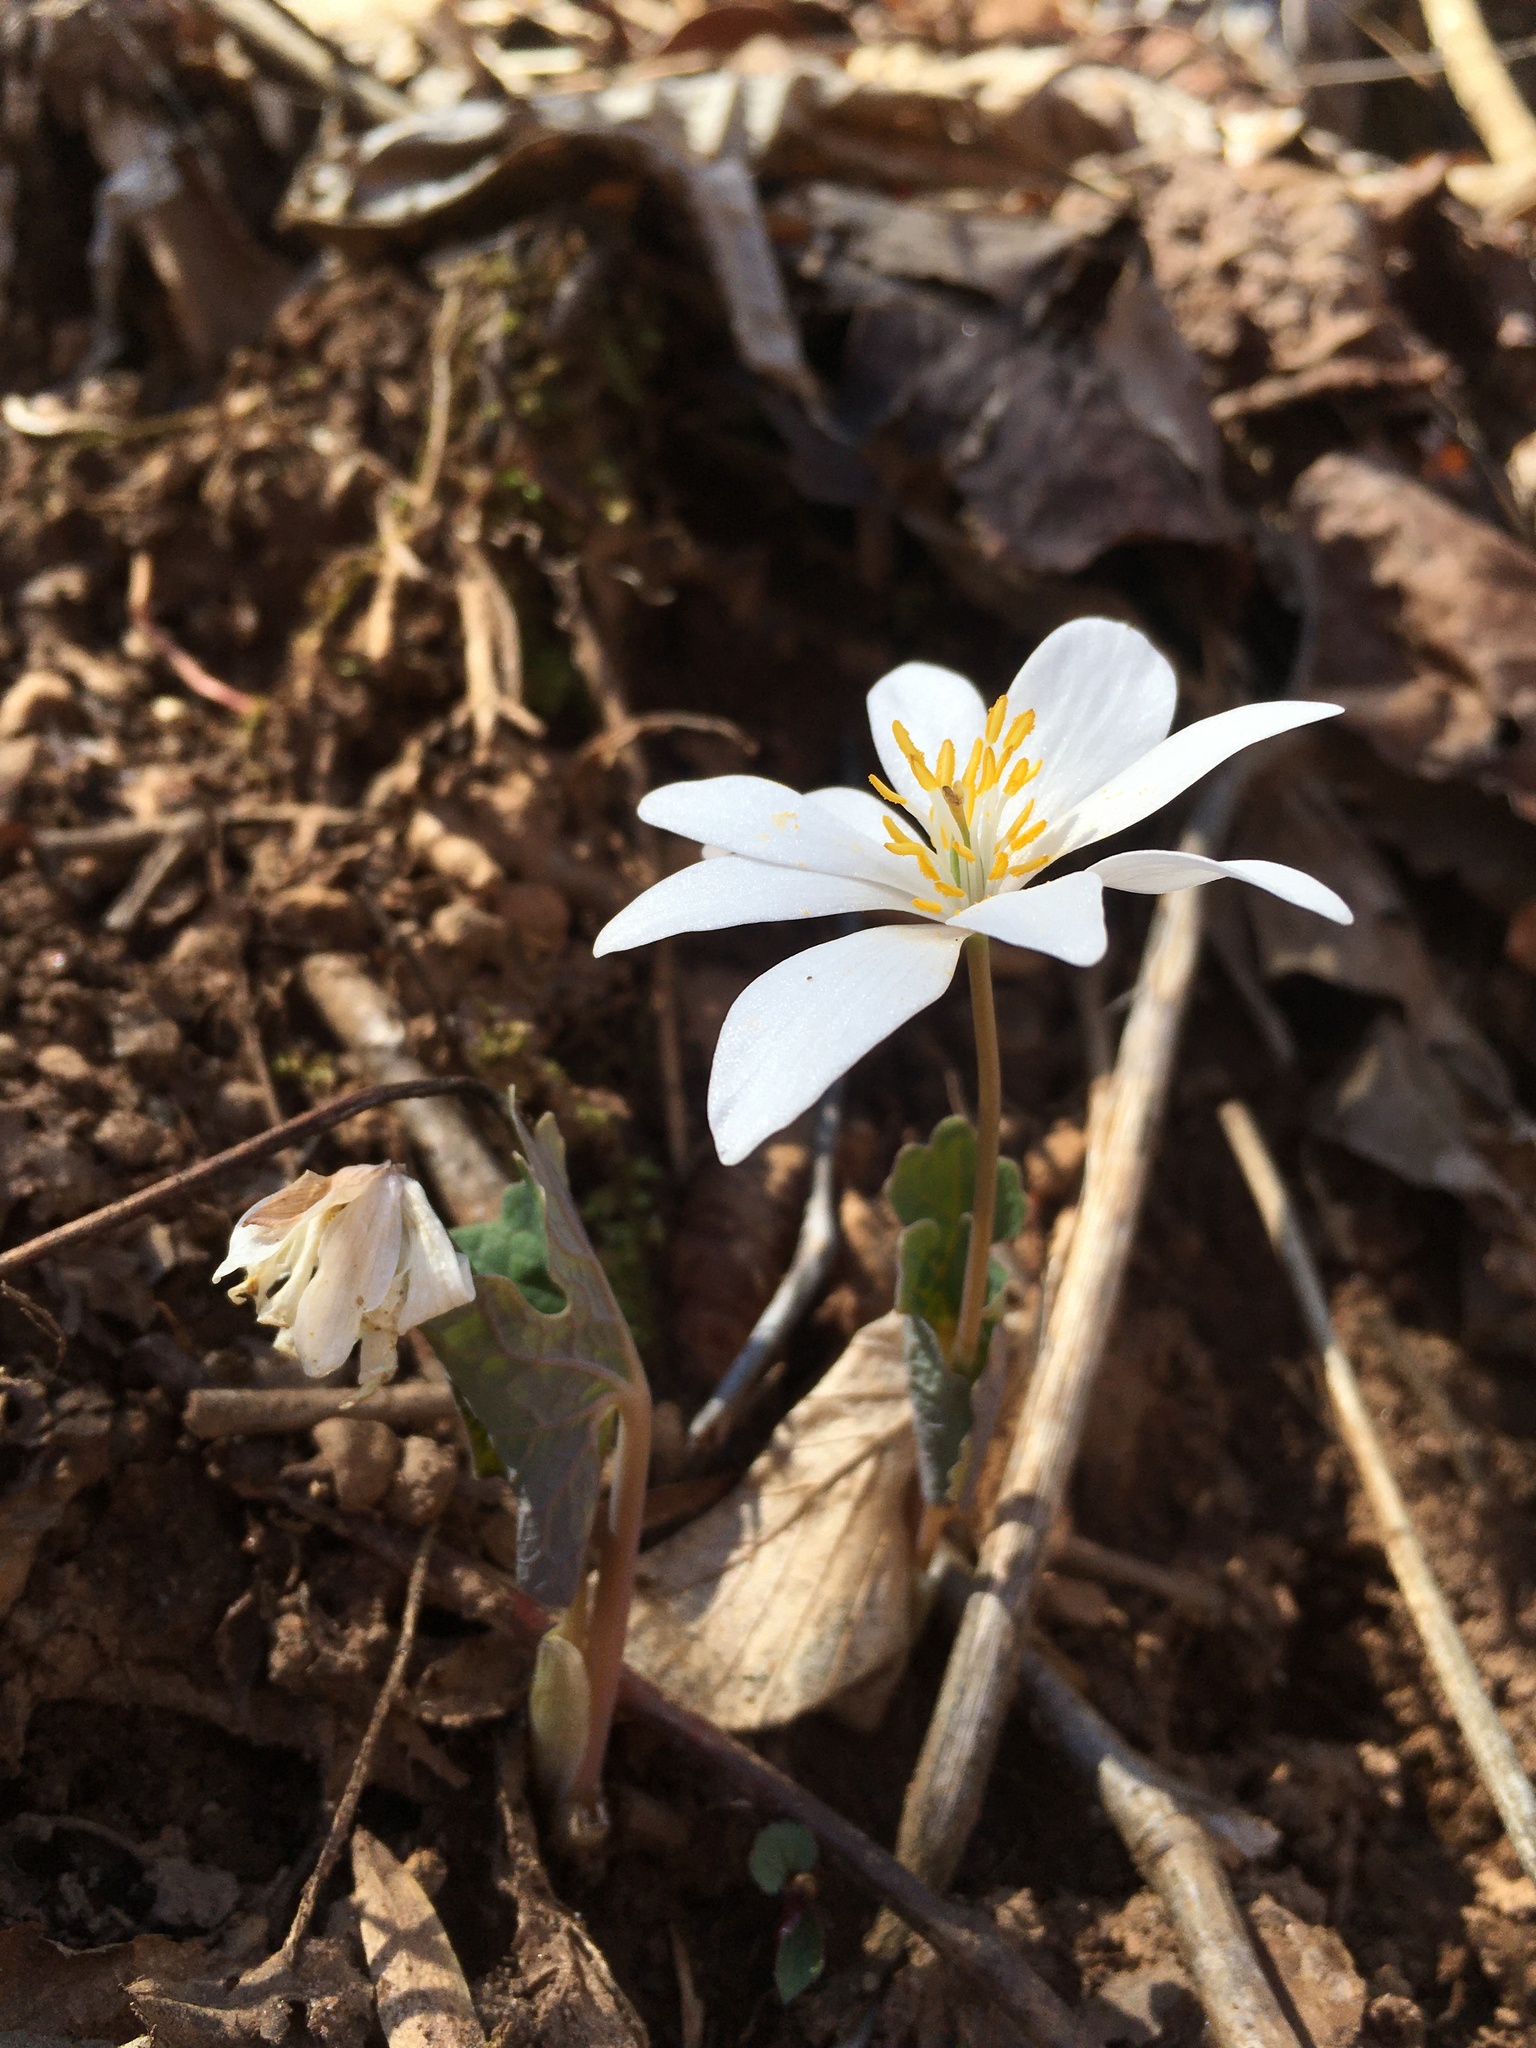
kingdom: Plantae
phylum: Tracheophyta
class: Magnoliopsida
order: Ranunculales
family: Papaveraceae
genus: Sanguinaria
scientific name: Sanguinaria canadensis
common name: Bloodroot
